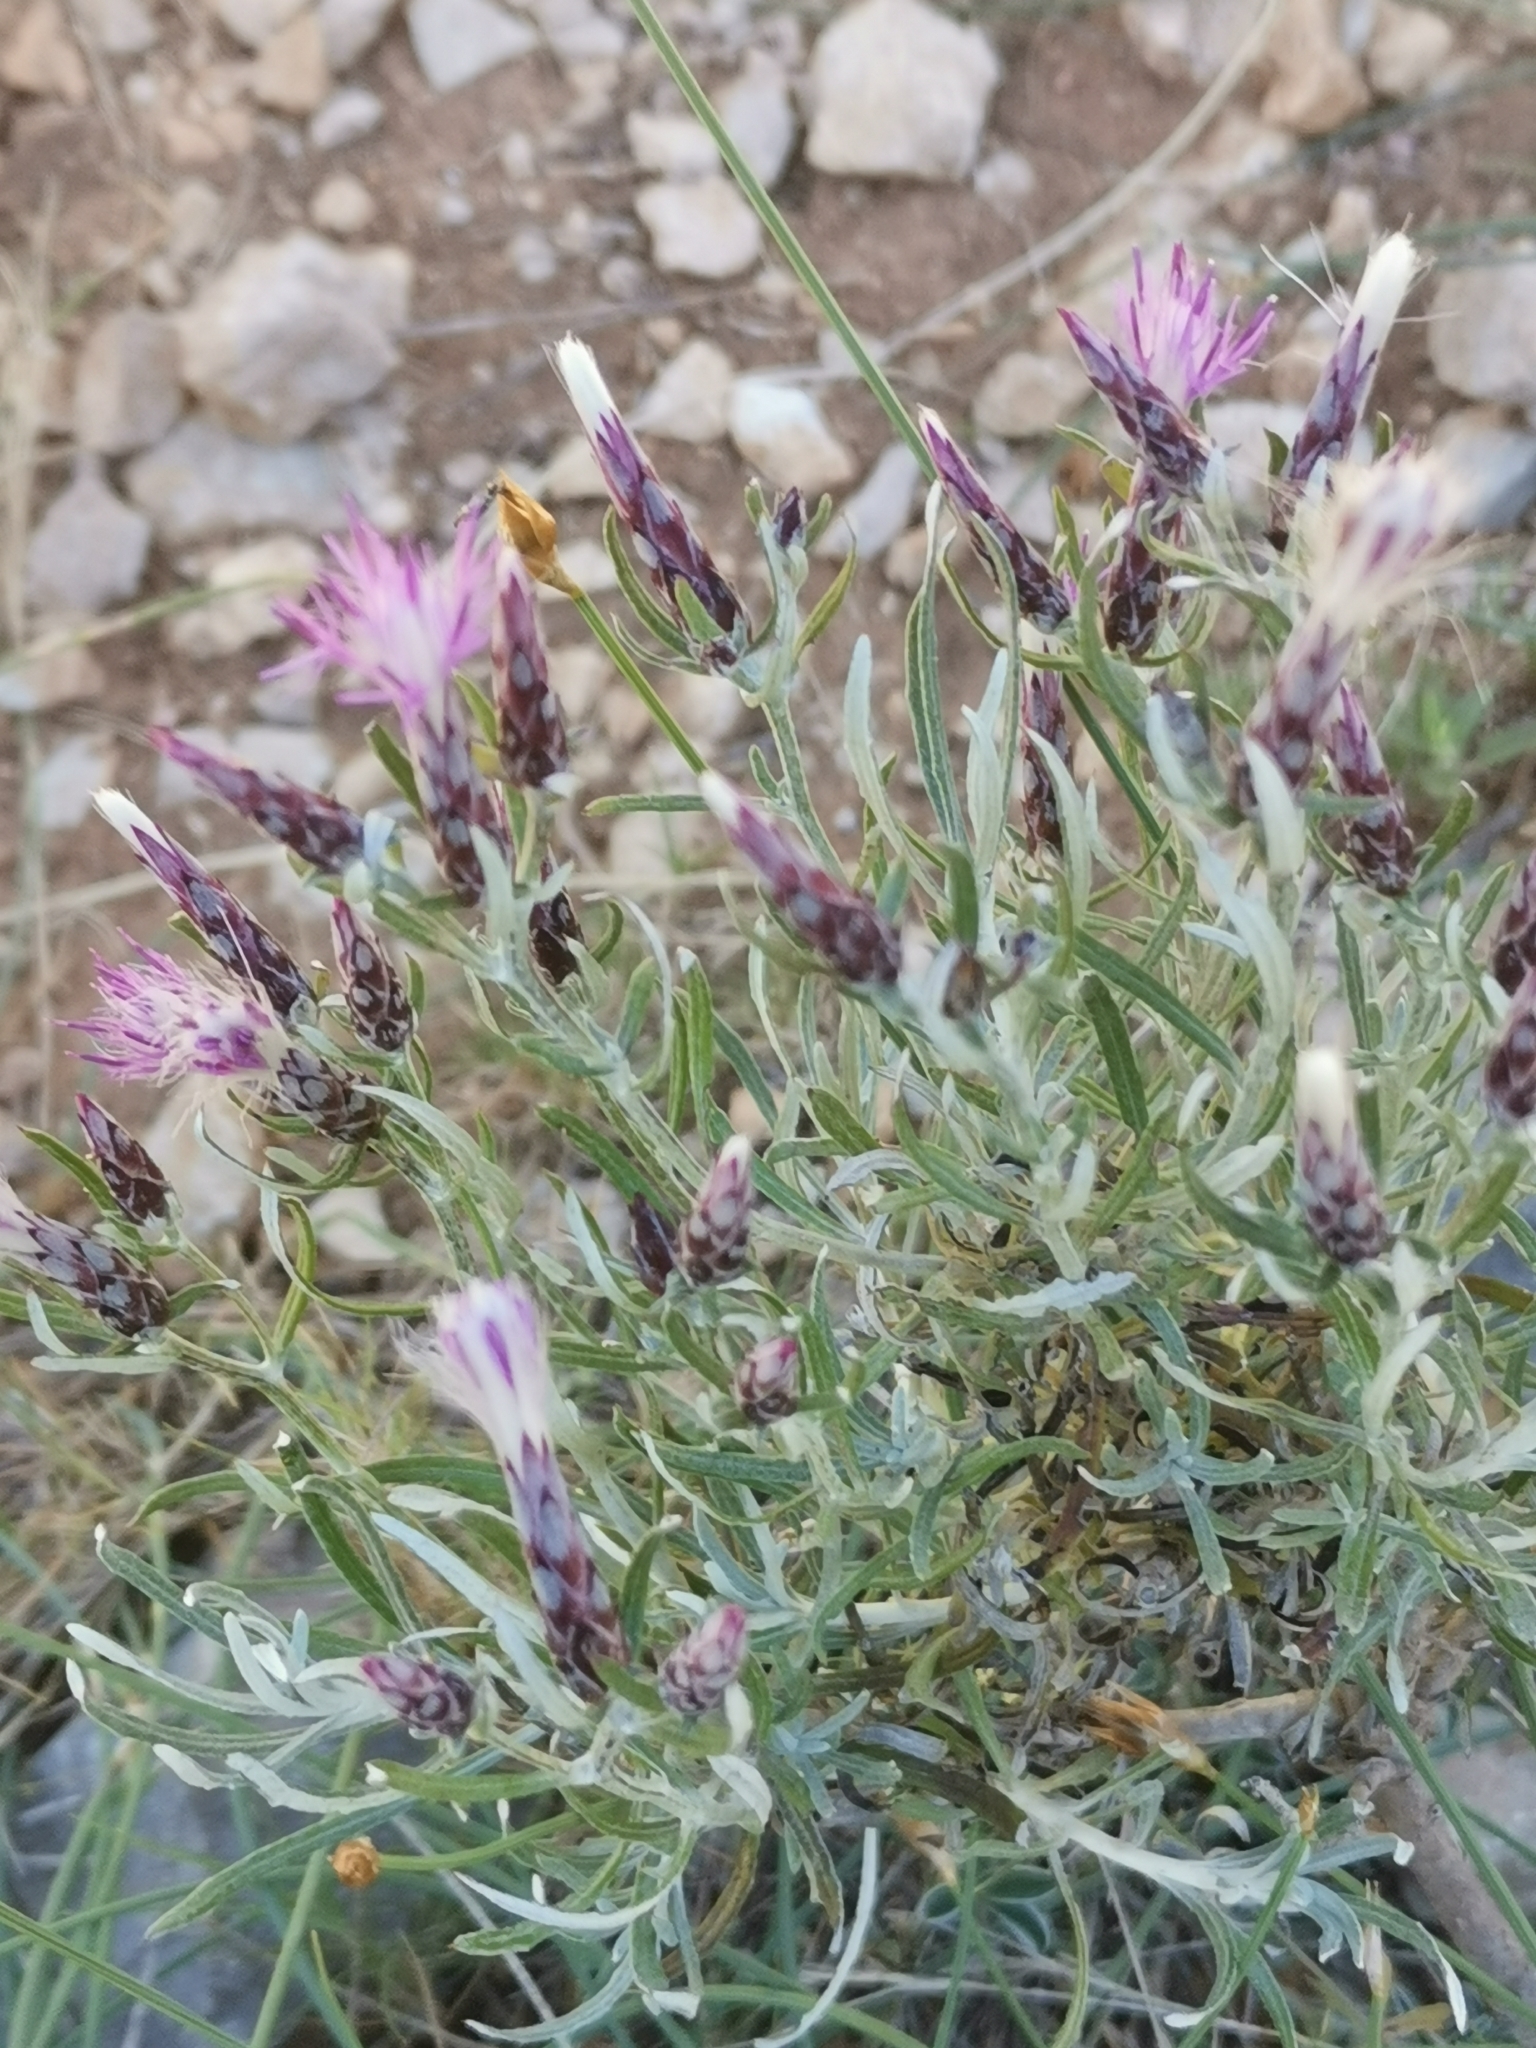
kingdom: Plantae
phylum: Tracheophyta
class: Magnoliopsida
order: Asterales
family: Asteraceae
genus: Staehelina
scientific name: Staehelina dubia
